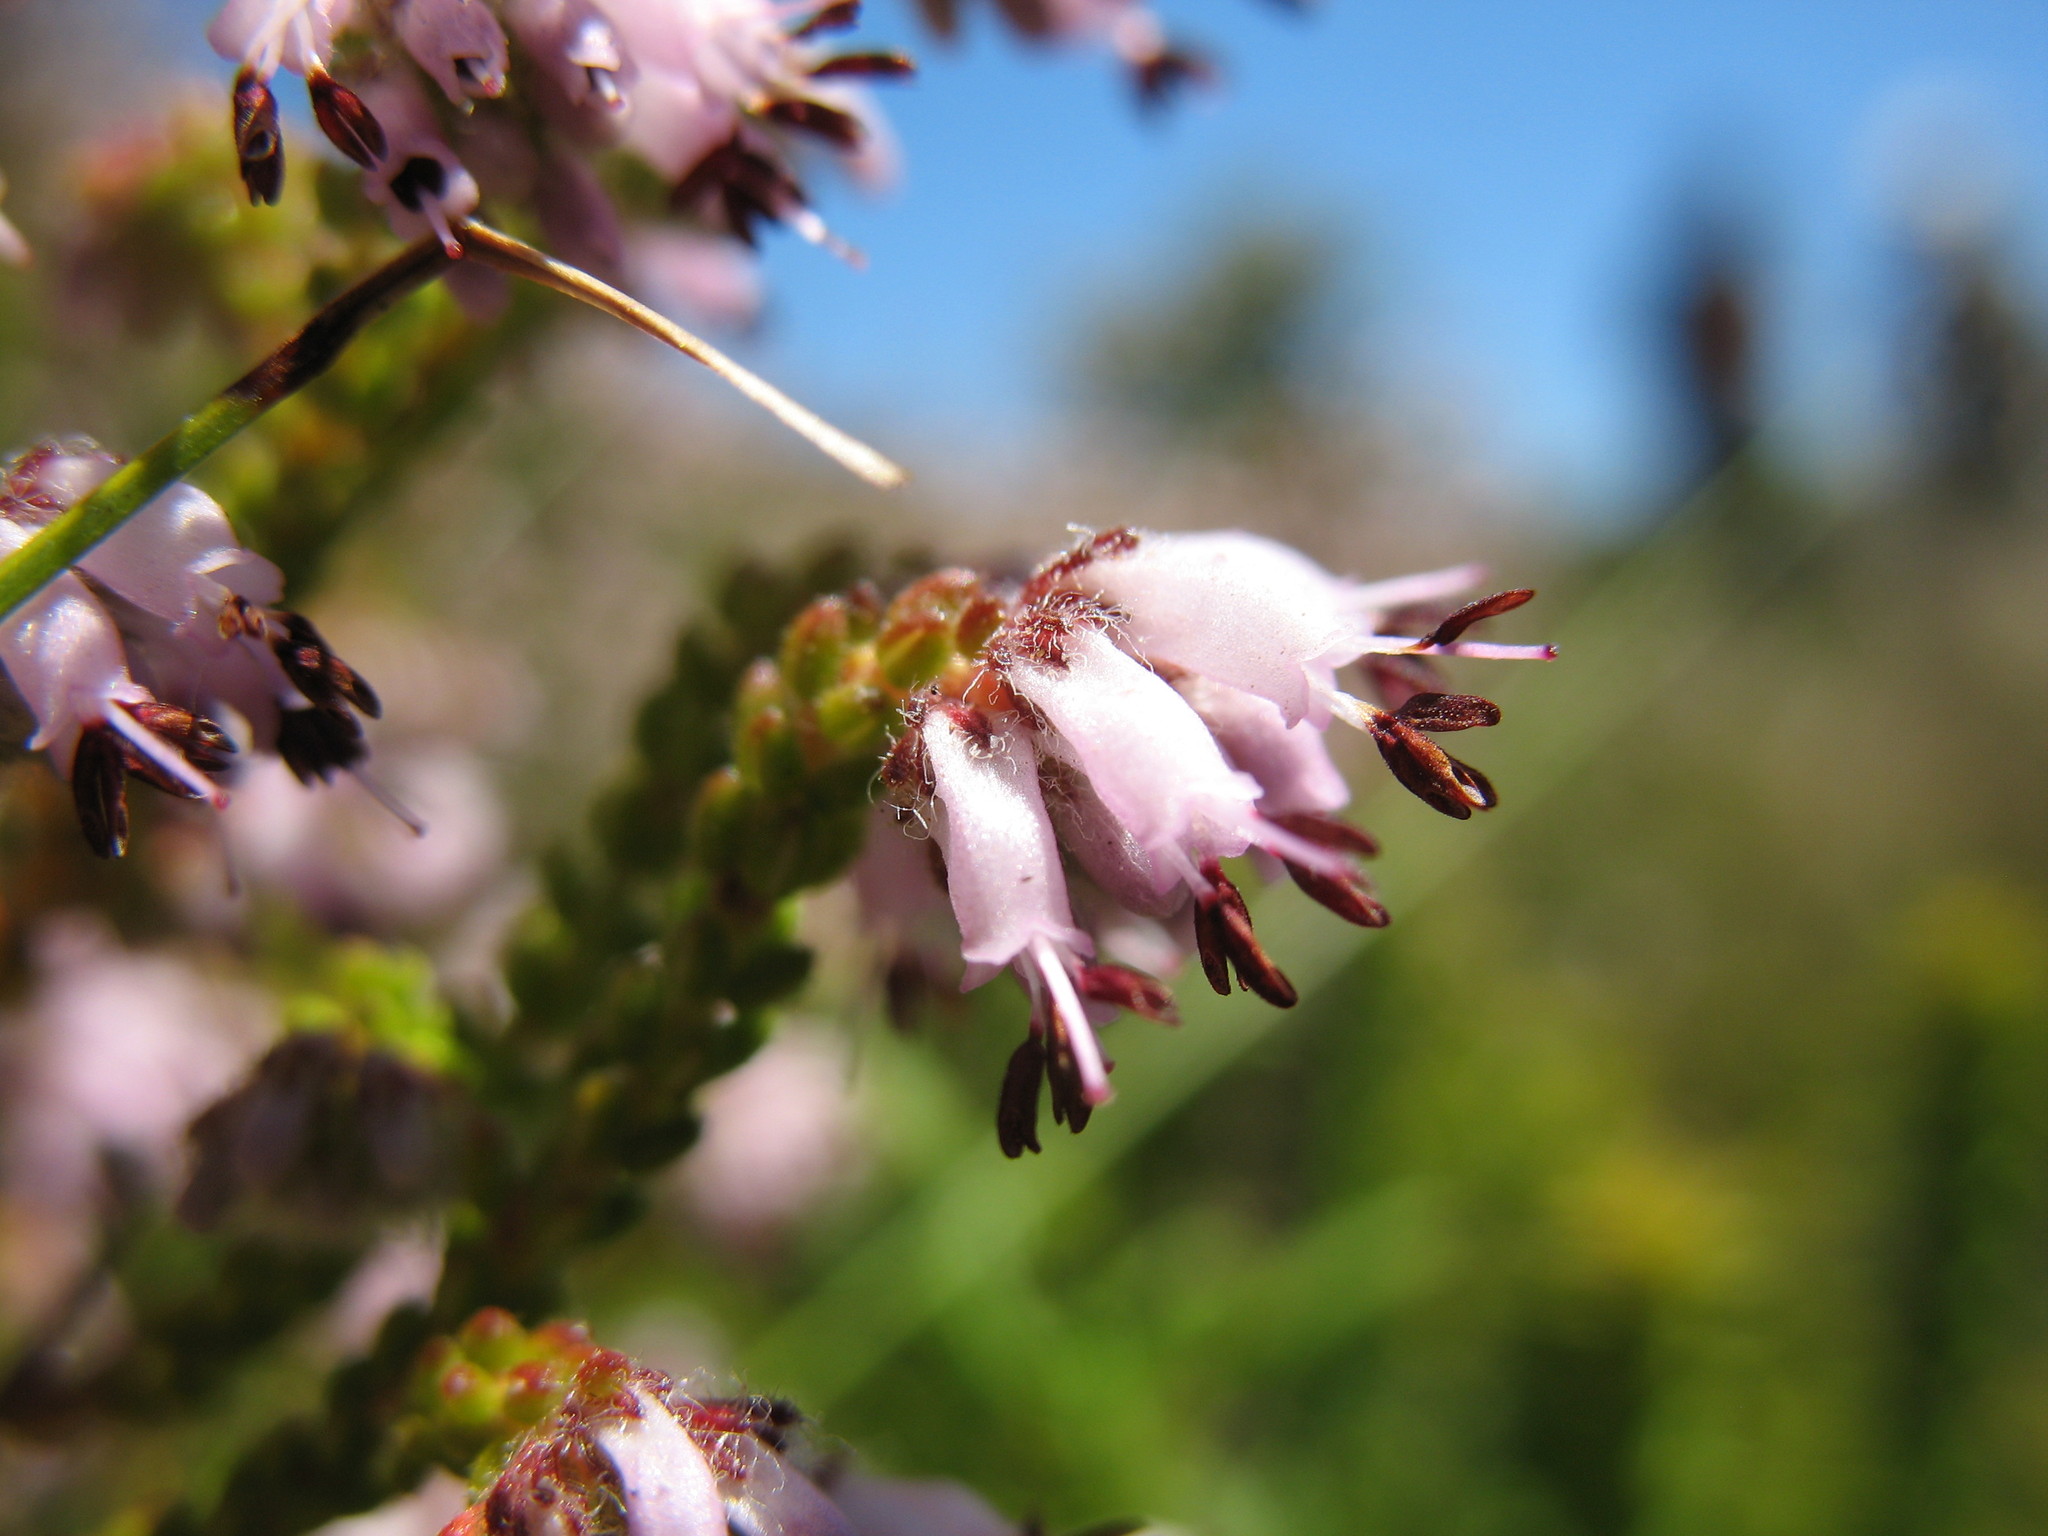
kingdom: Plantae
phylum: Tracheophyta
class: Magnoliopsida
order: Ericales
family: Ericaceae
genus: Erica
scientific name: Erica ericoides
